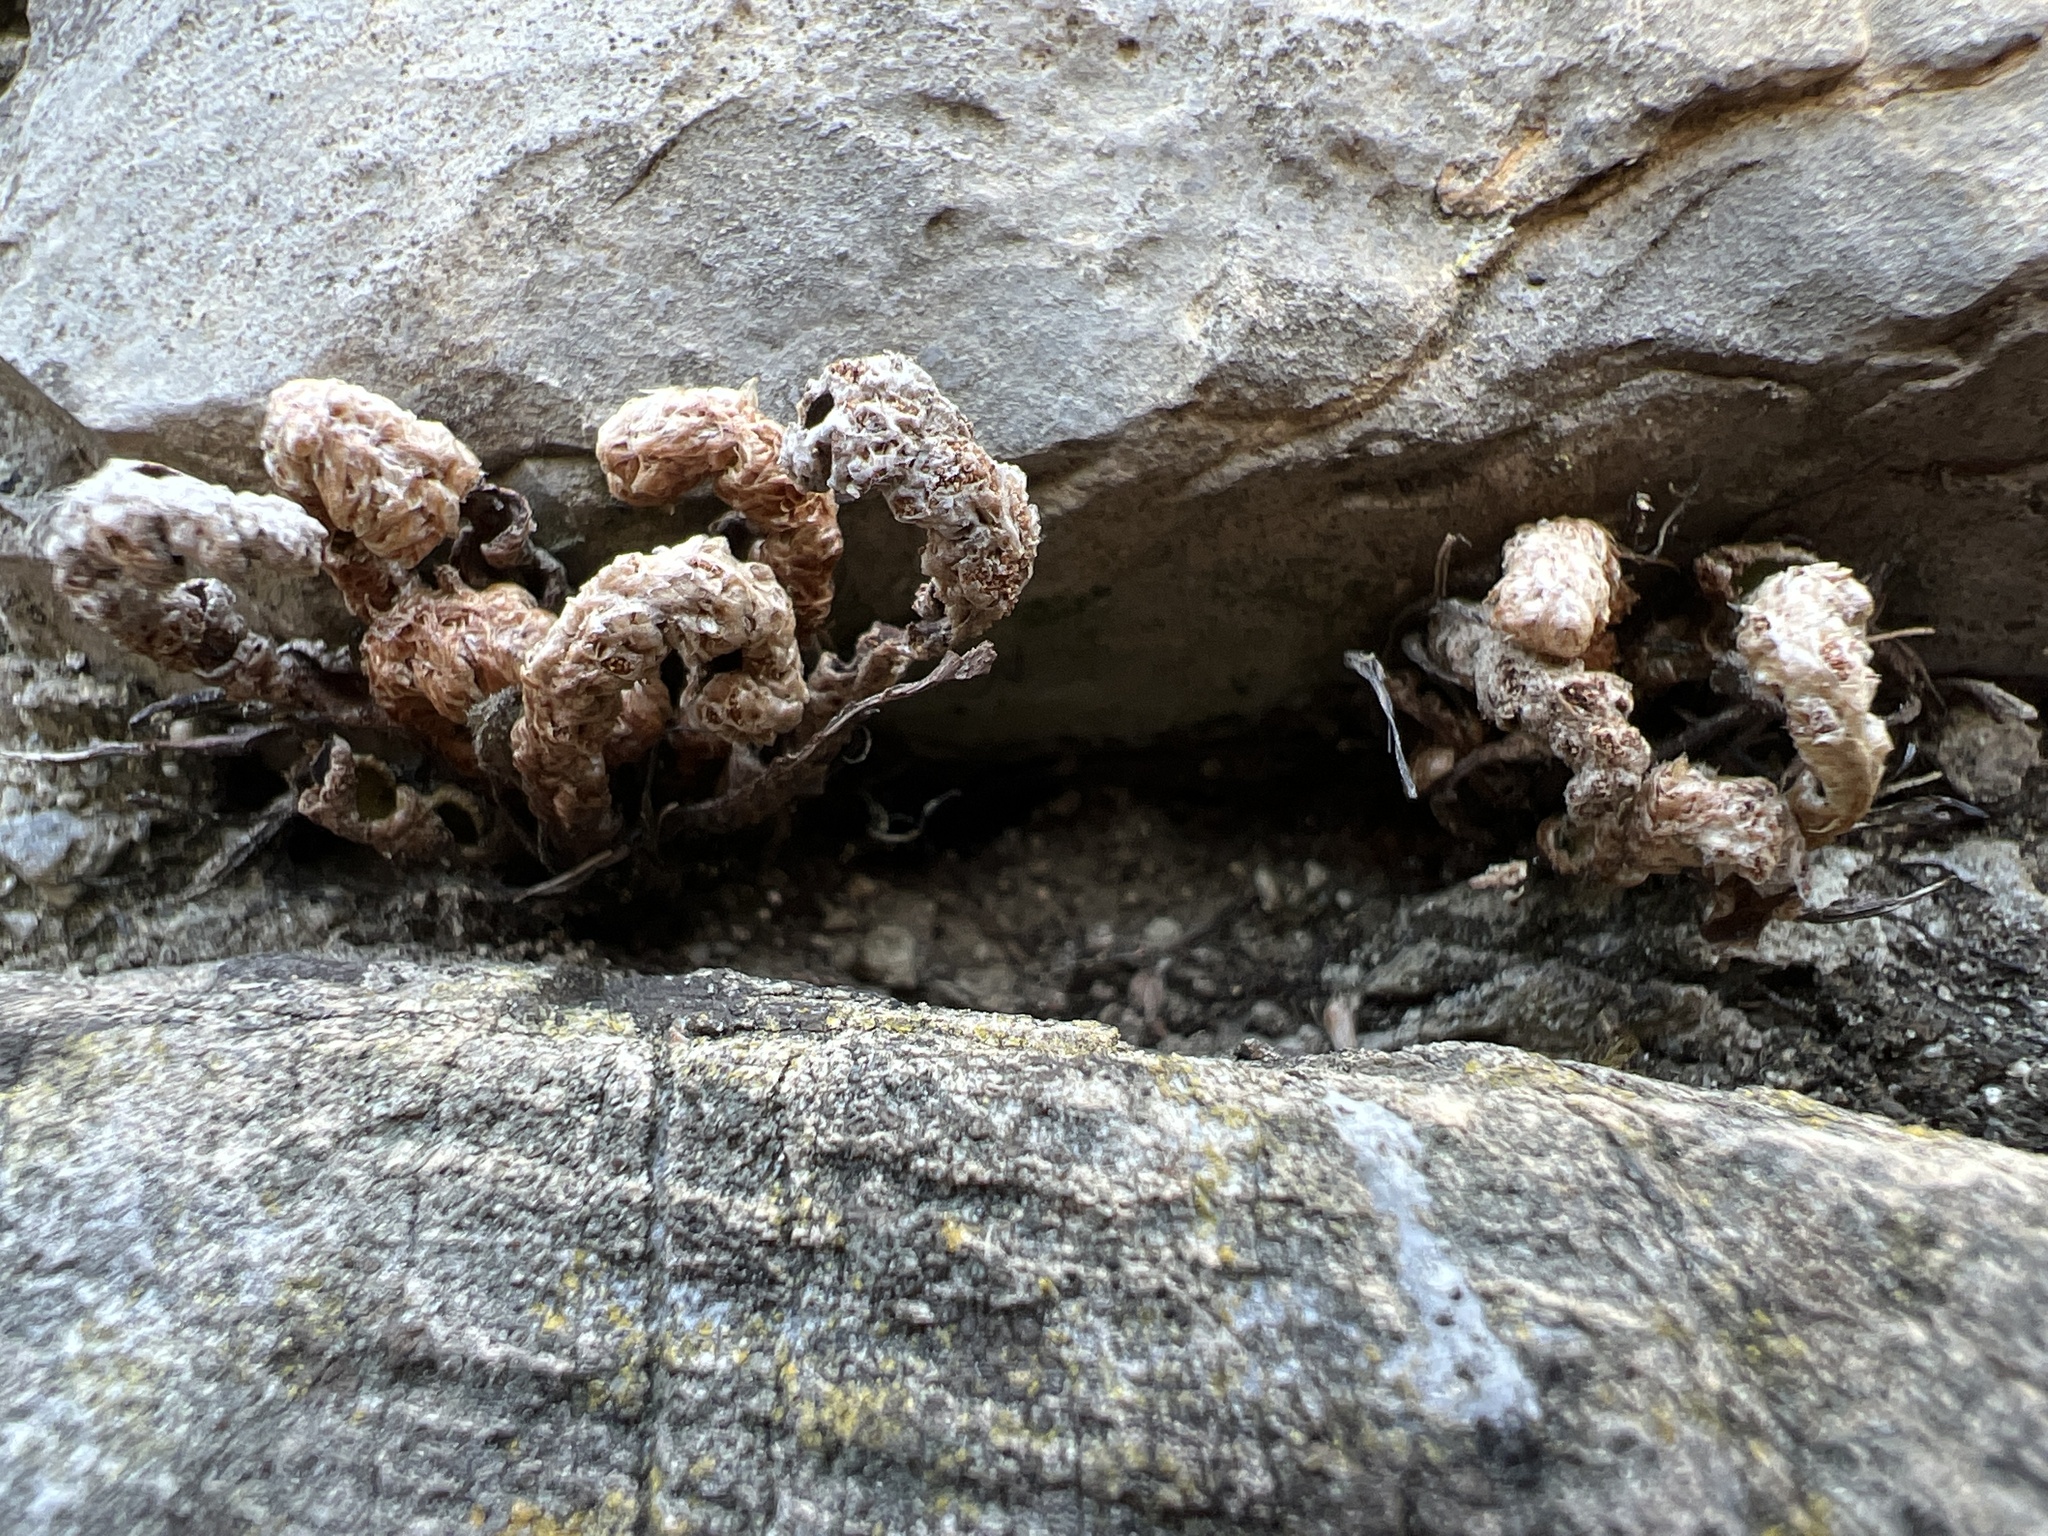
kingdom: Plantae
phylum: Tracheophyta
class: Polypodiopsida
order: Polypodiales
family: Aspleniaceae
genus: Asplenium
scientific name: Asplenium ceterach
